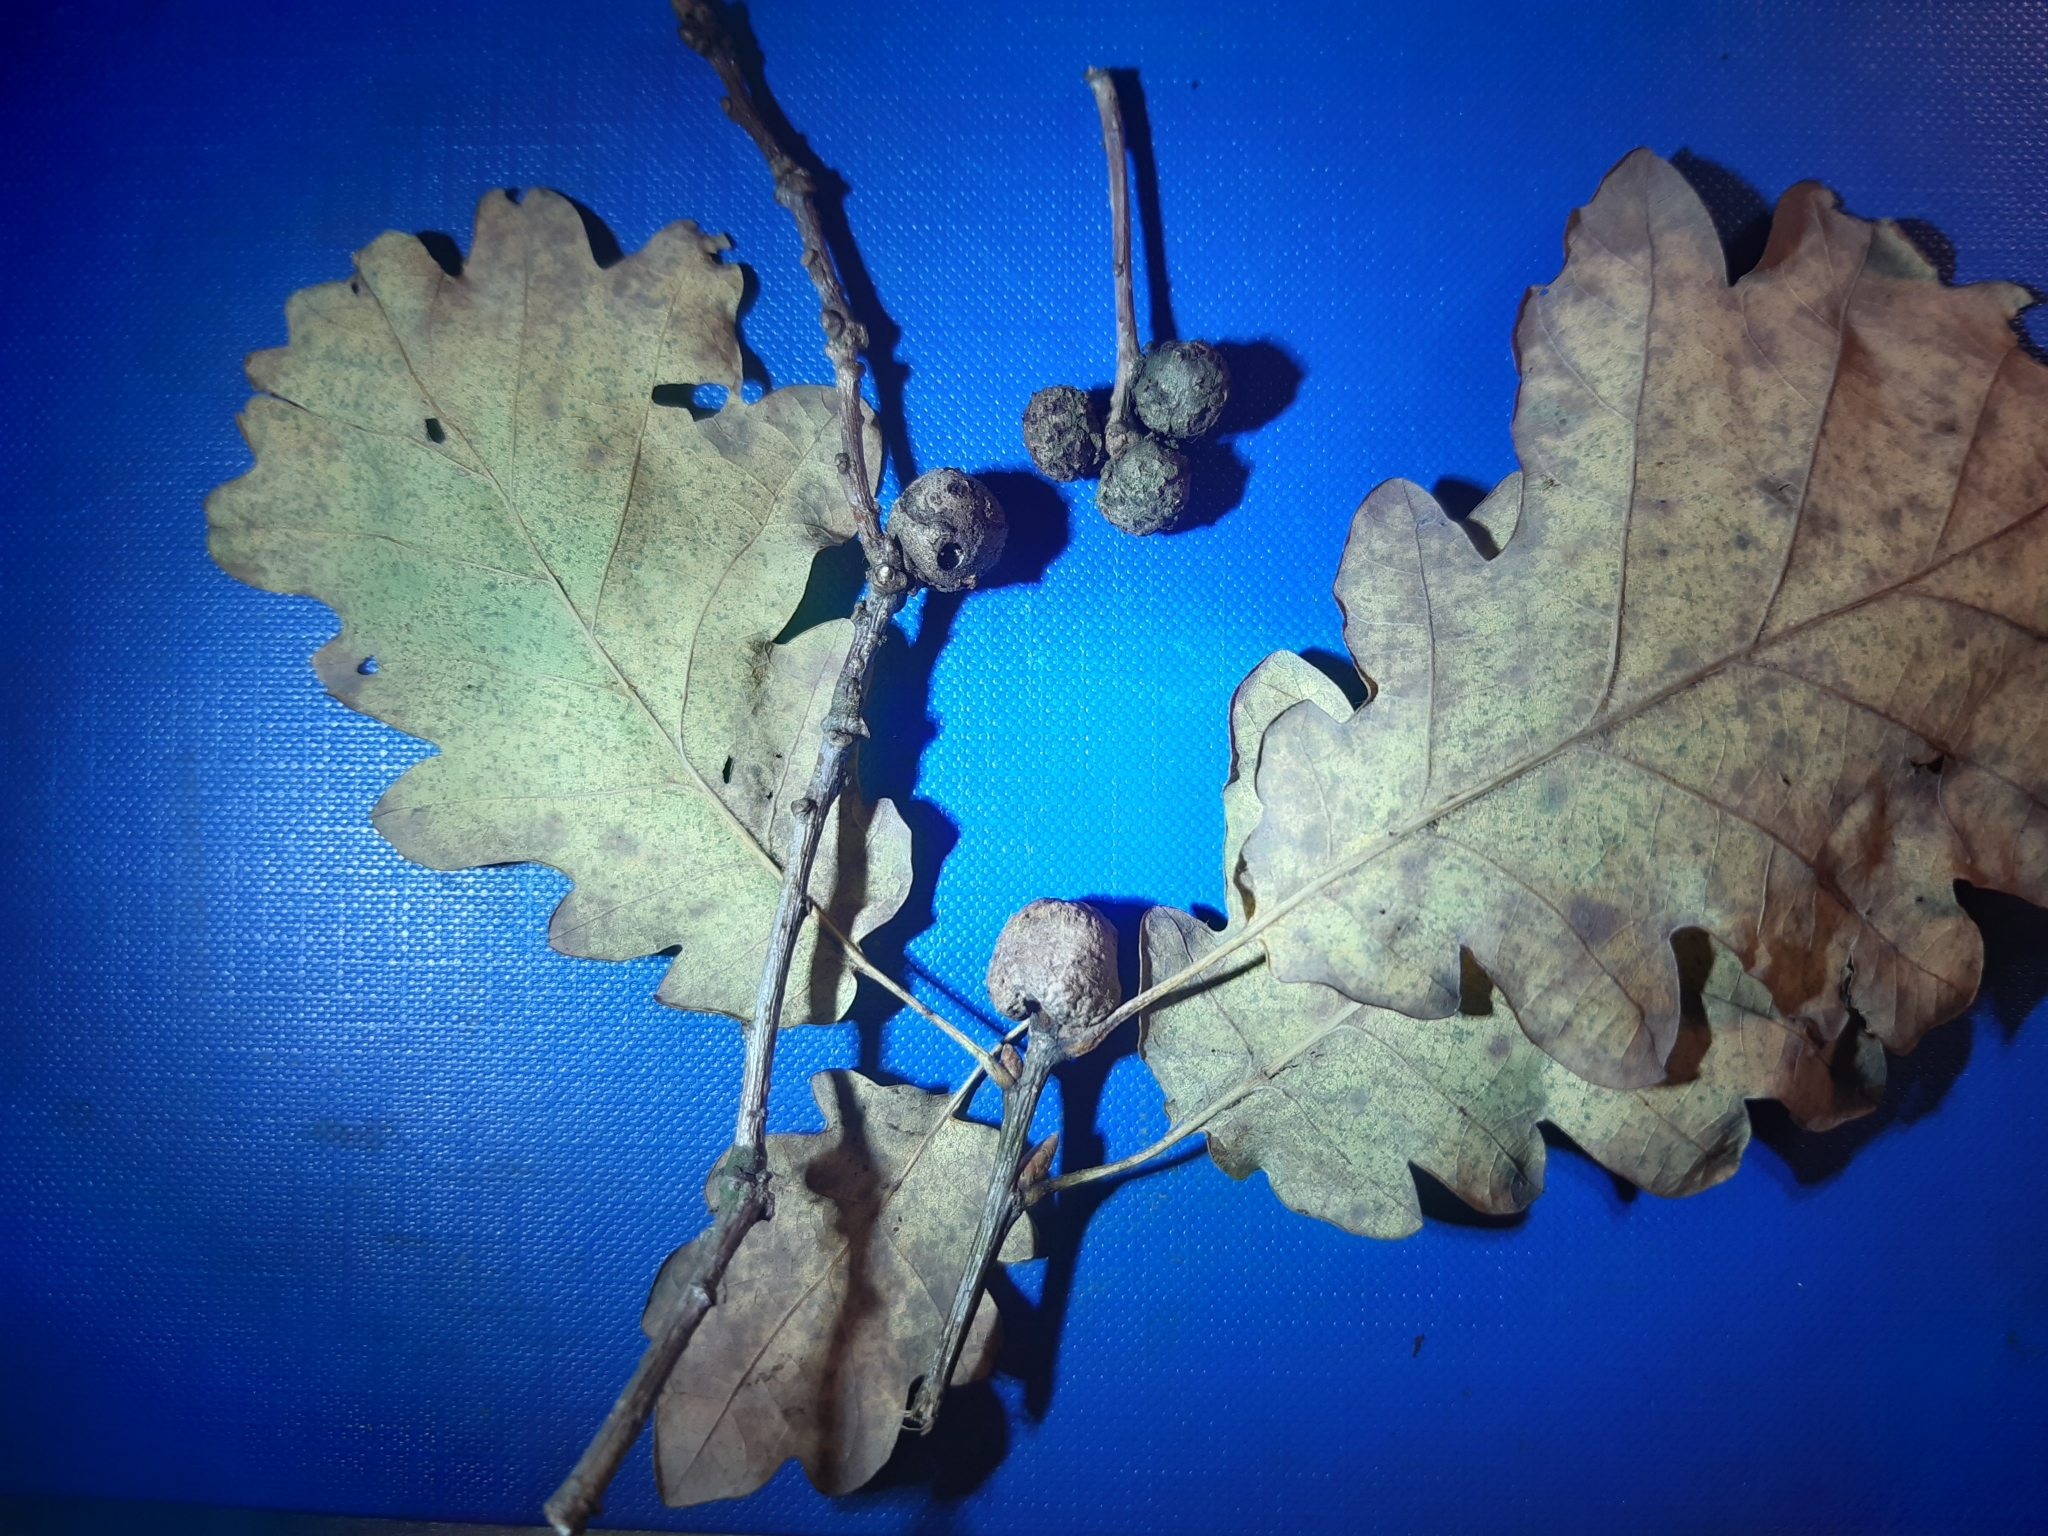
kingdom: Animalia
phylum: Arthropoda
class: Insecta
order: Hymenoptera
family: Cynipidae
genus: Andricus
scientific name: Andricus lignicolus
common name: Cola-nut gall
